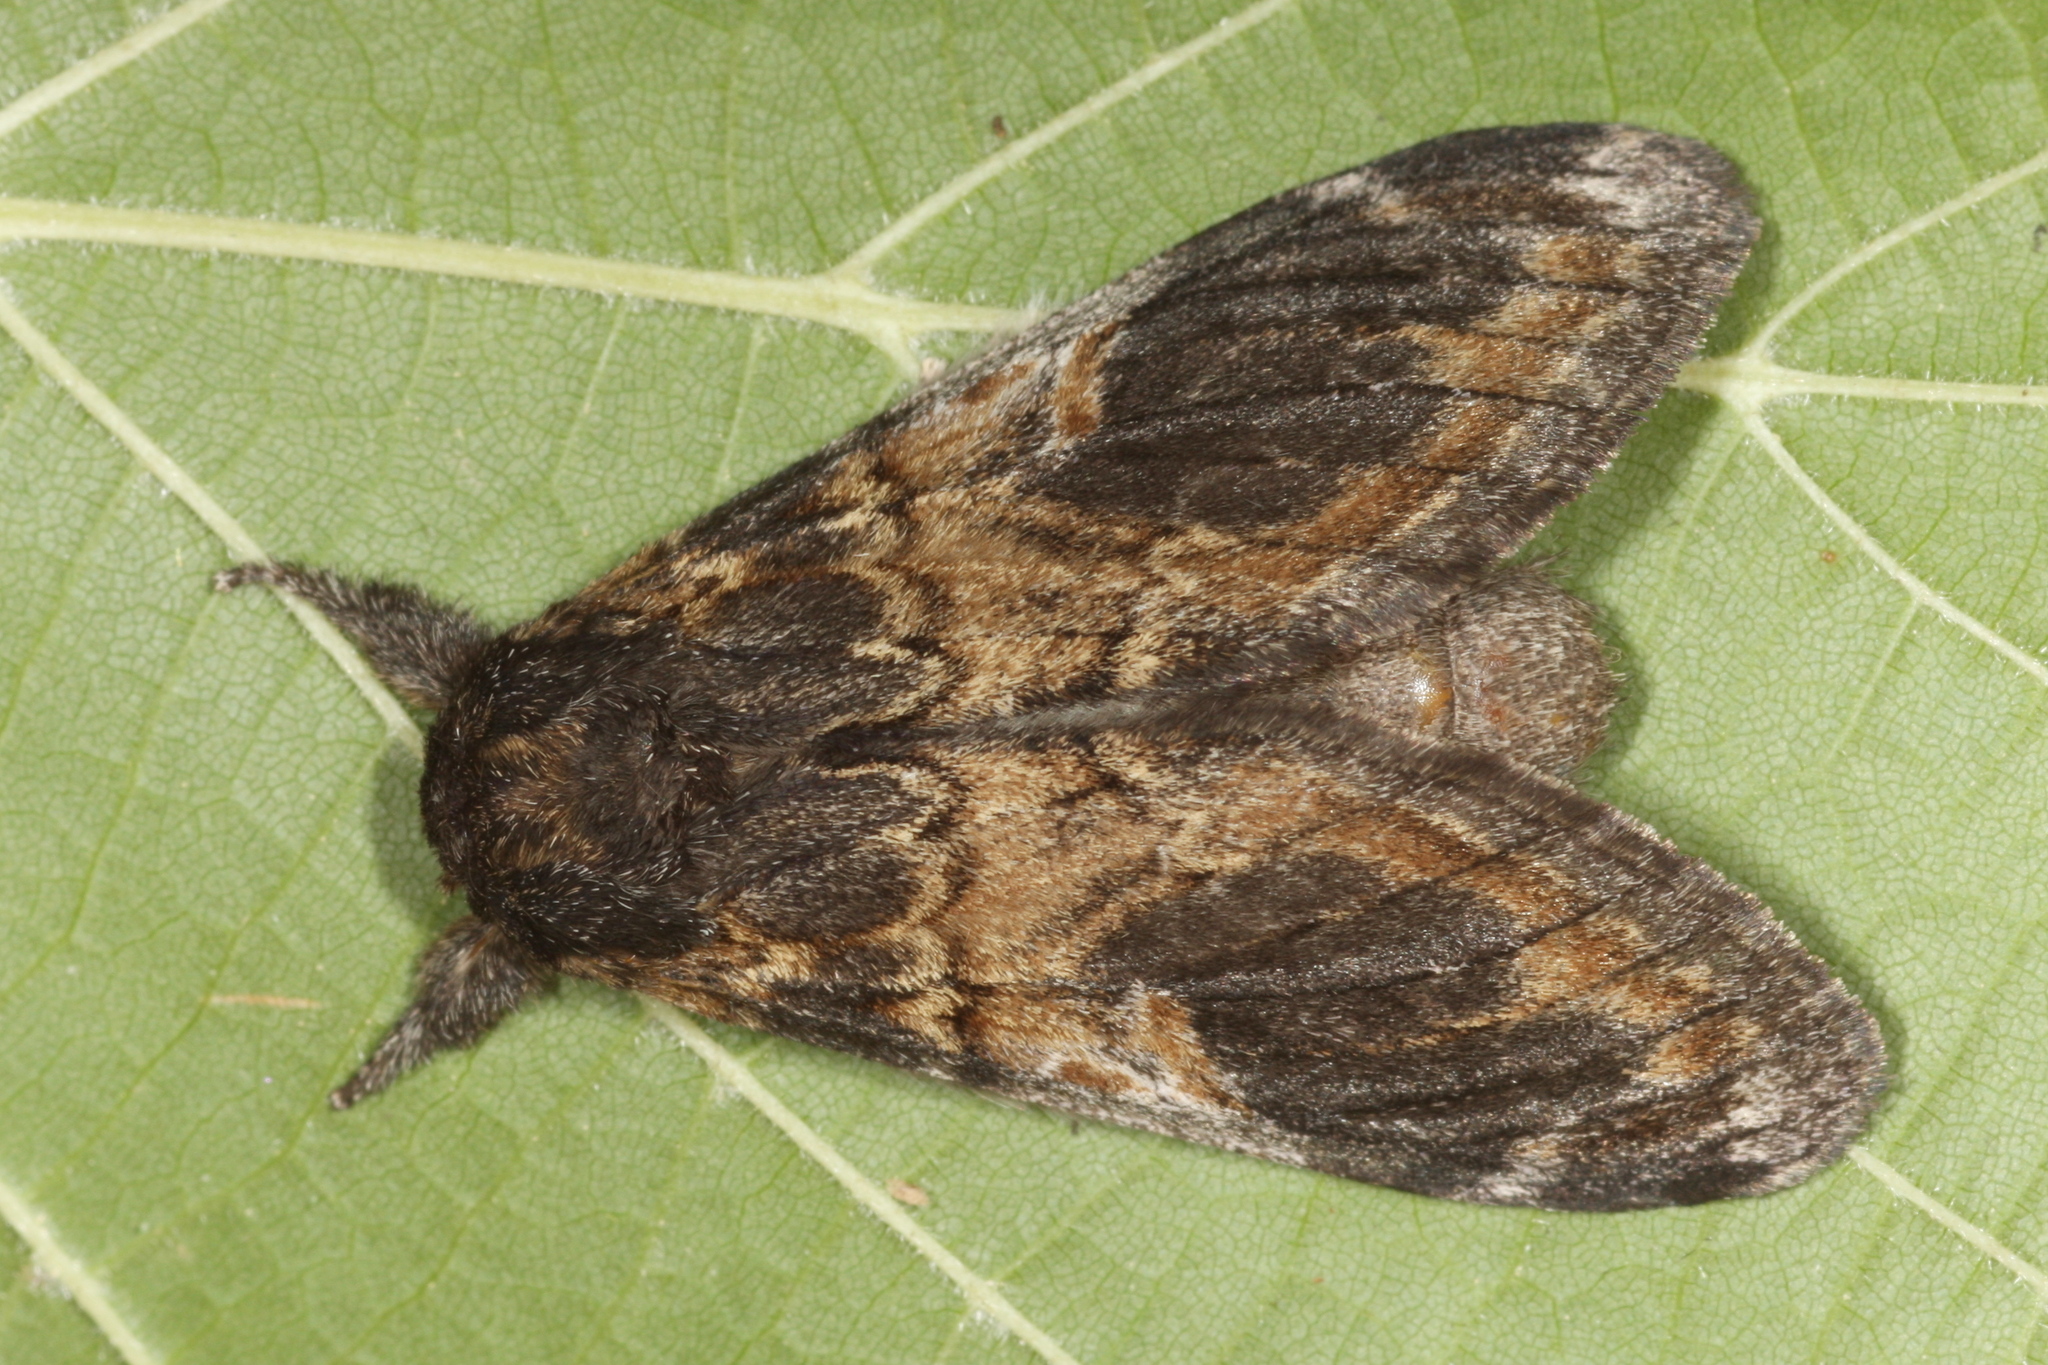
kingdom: Animalia
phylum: Arthropoda
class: Insecta
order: Lepidoptera
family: Notodontidae
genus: Notodonta
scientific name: Notodonta tritophus
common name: Three-humped prominent
